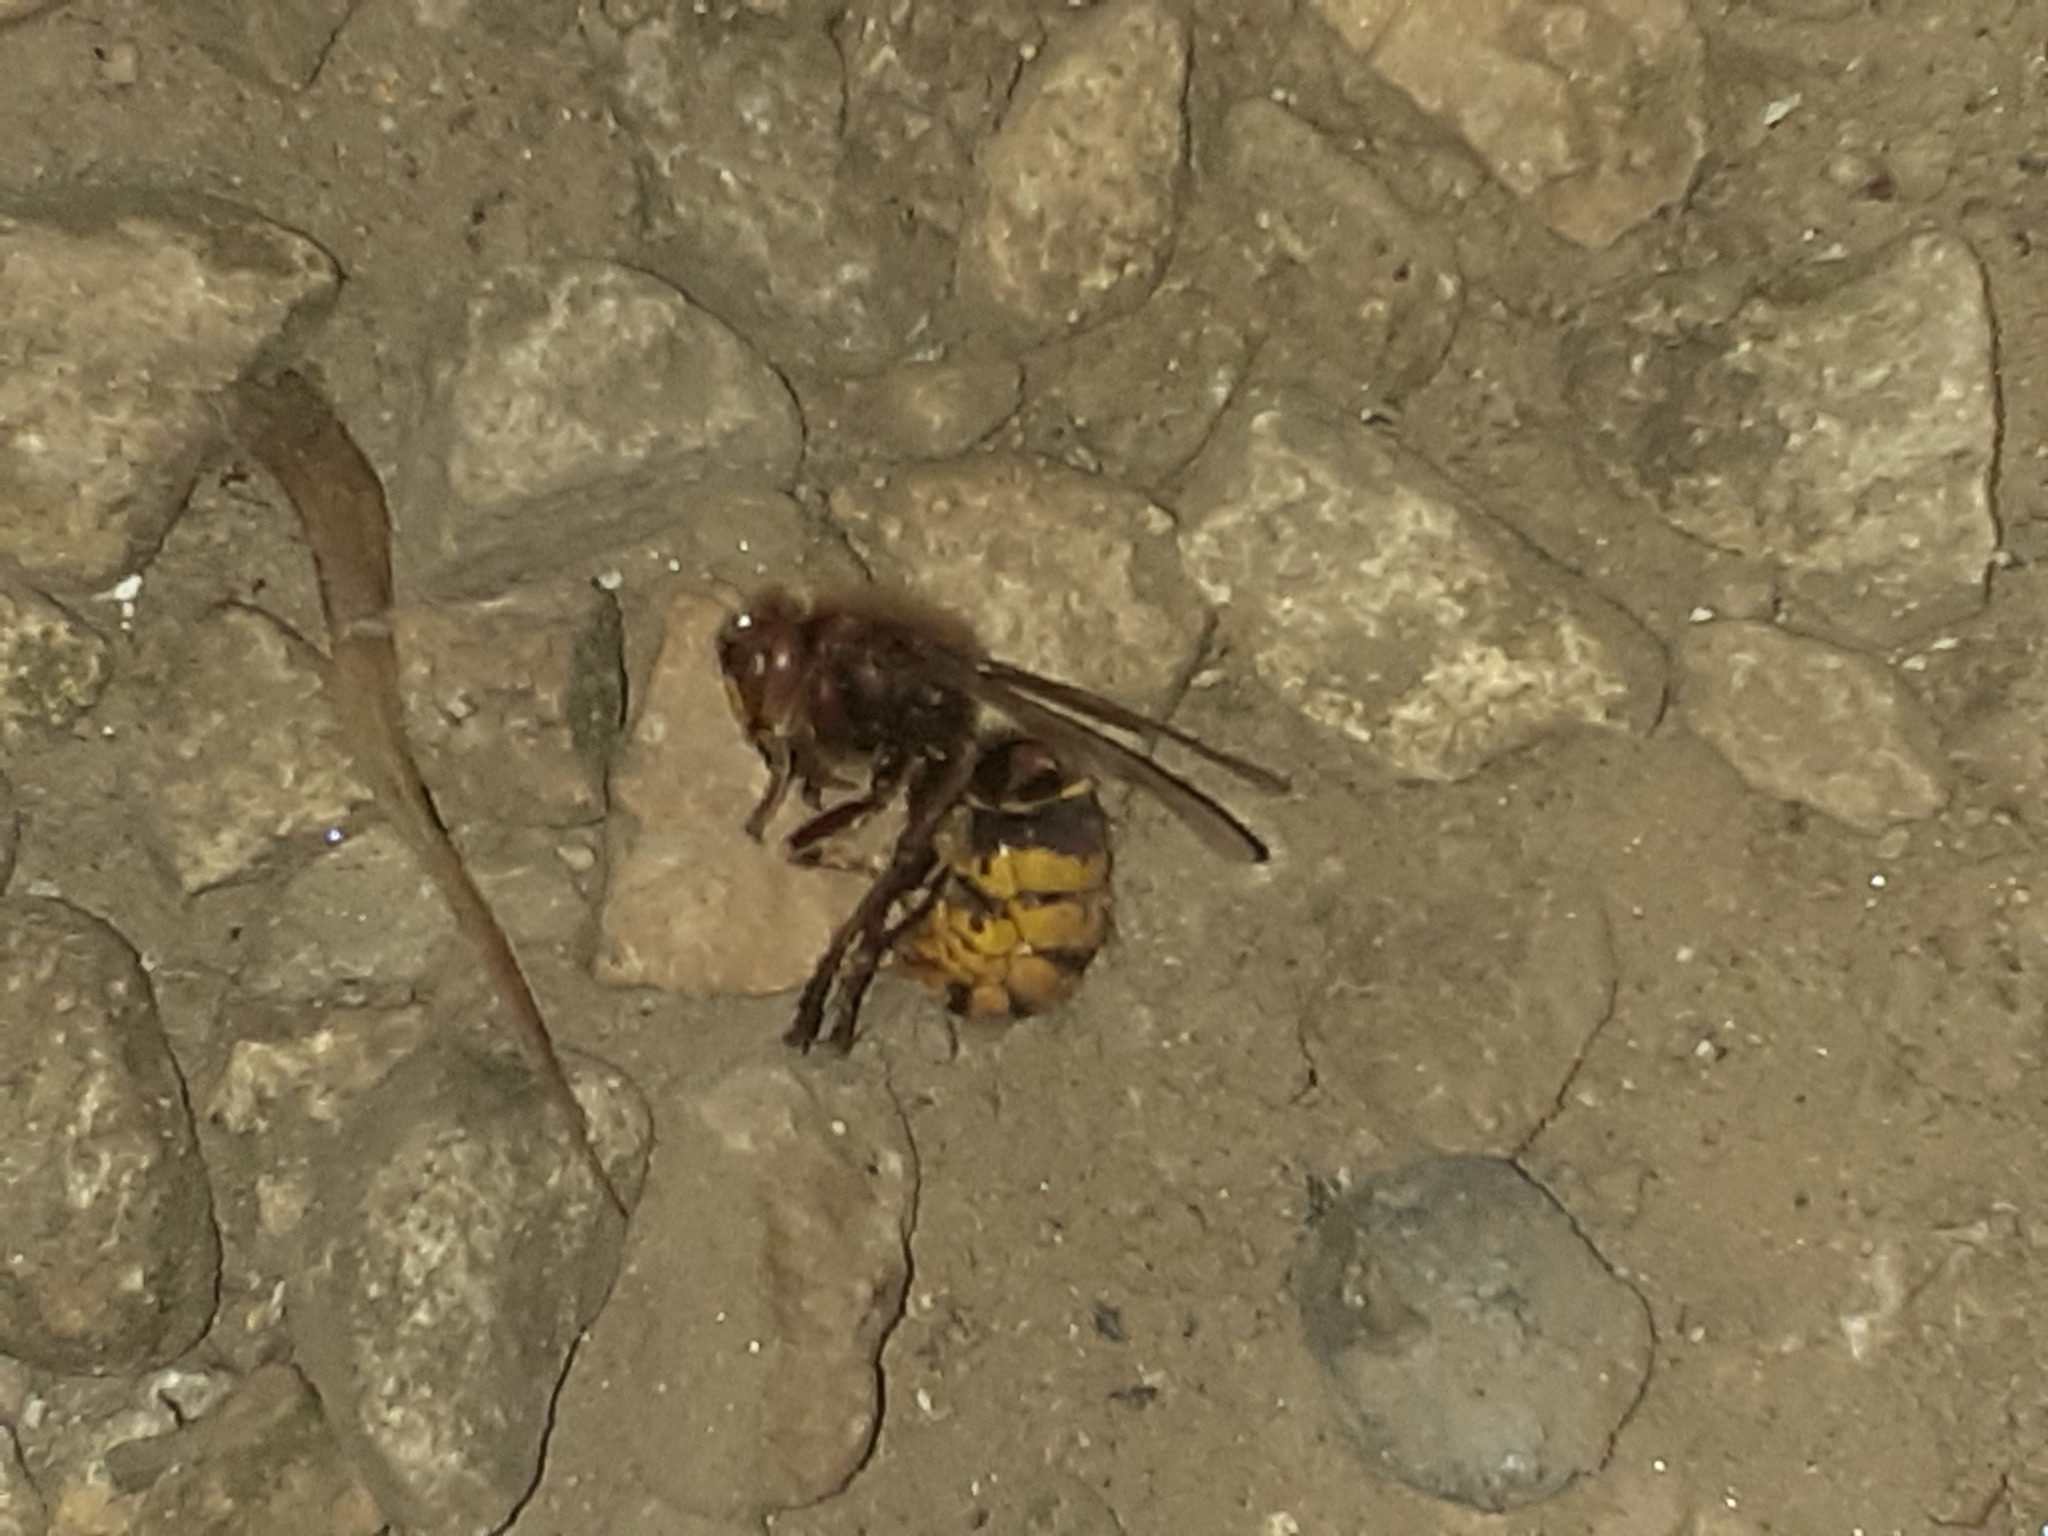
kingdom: Animalia
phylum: Arthropoda
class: Insecta
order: Hymenoptera
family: Vespidae
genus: Vespa
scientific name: Vespa crabro
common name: Hornet
